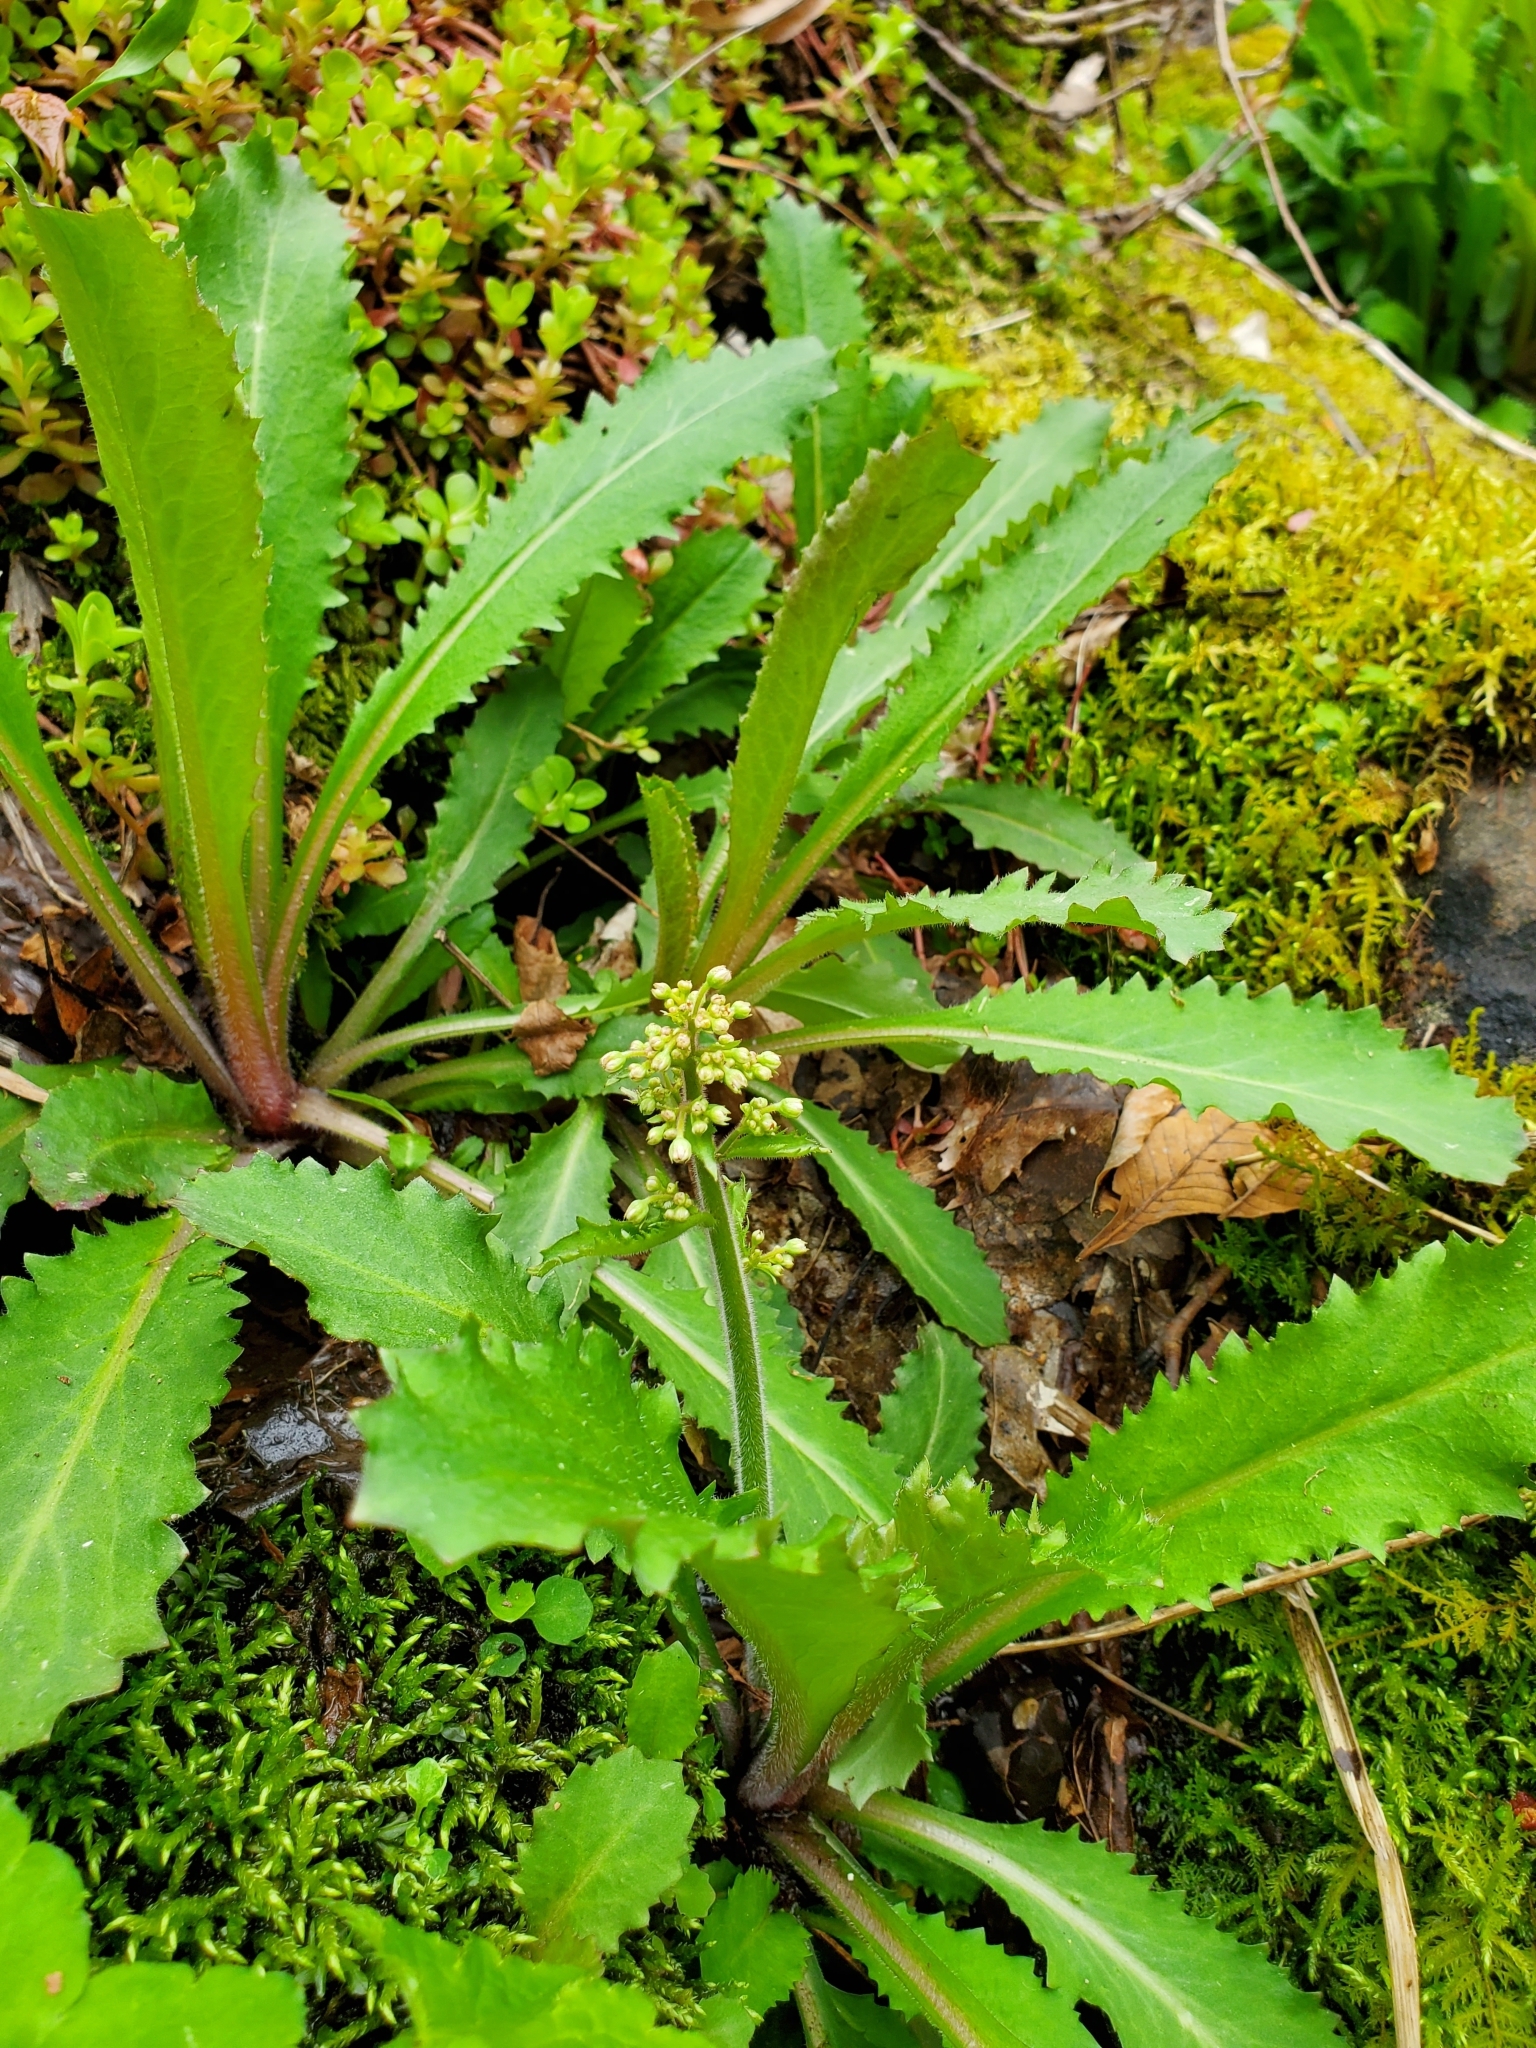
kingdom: Plantae
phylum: Tracheophyta
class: Magnoliopsida
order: Saxifragales
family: Saxifragaceae
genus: Micranthes
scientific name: Micranthes micranthidifolia
